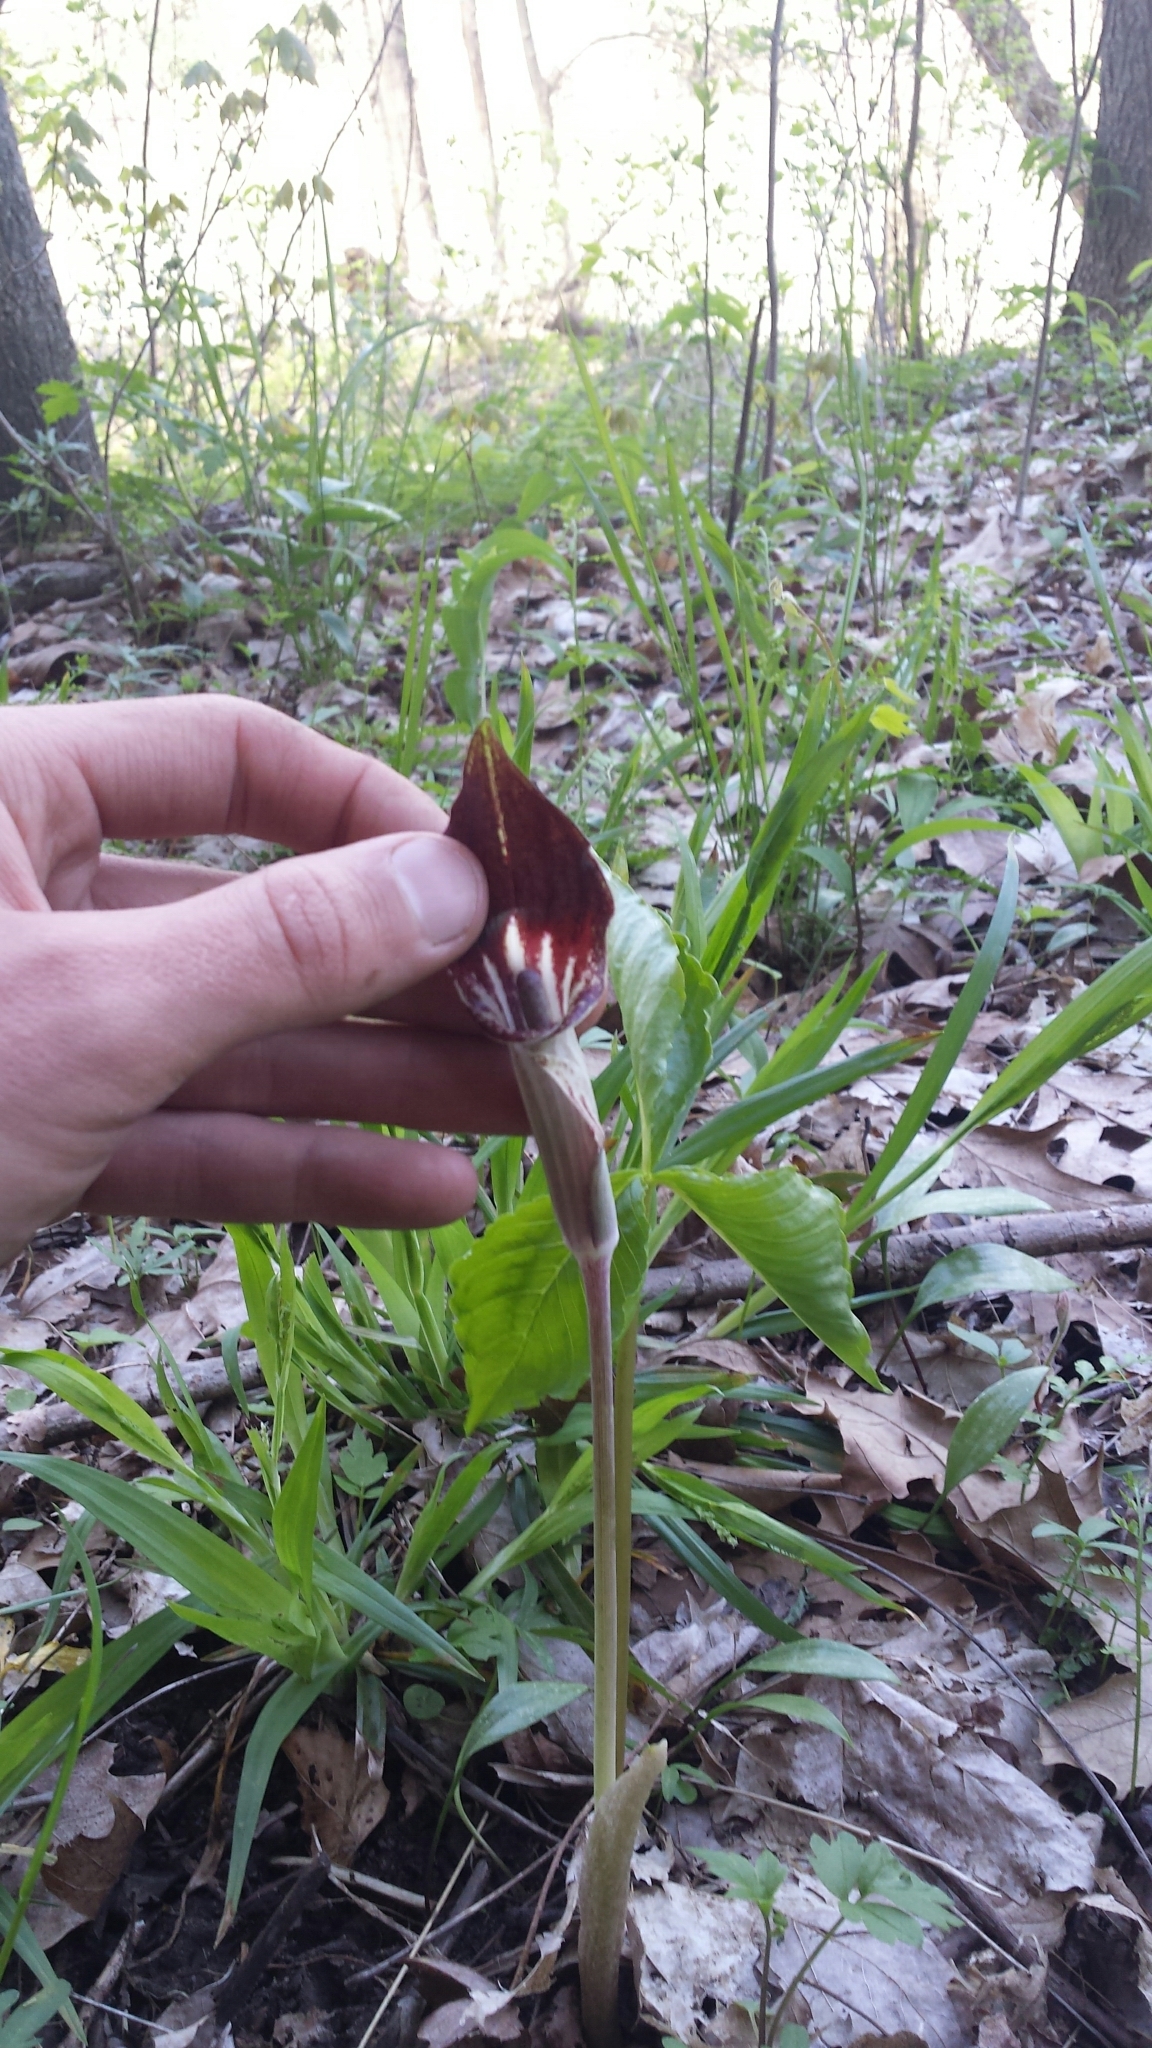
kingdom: Plantae
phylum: Tracheophyta
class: Liliopsida
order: Alismatales
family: Araceae
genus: Arisaema
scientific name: Arisaema triphyllum
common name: Jack-in-the-pulpit
